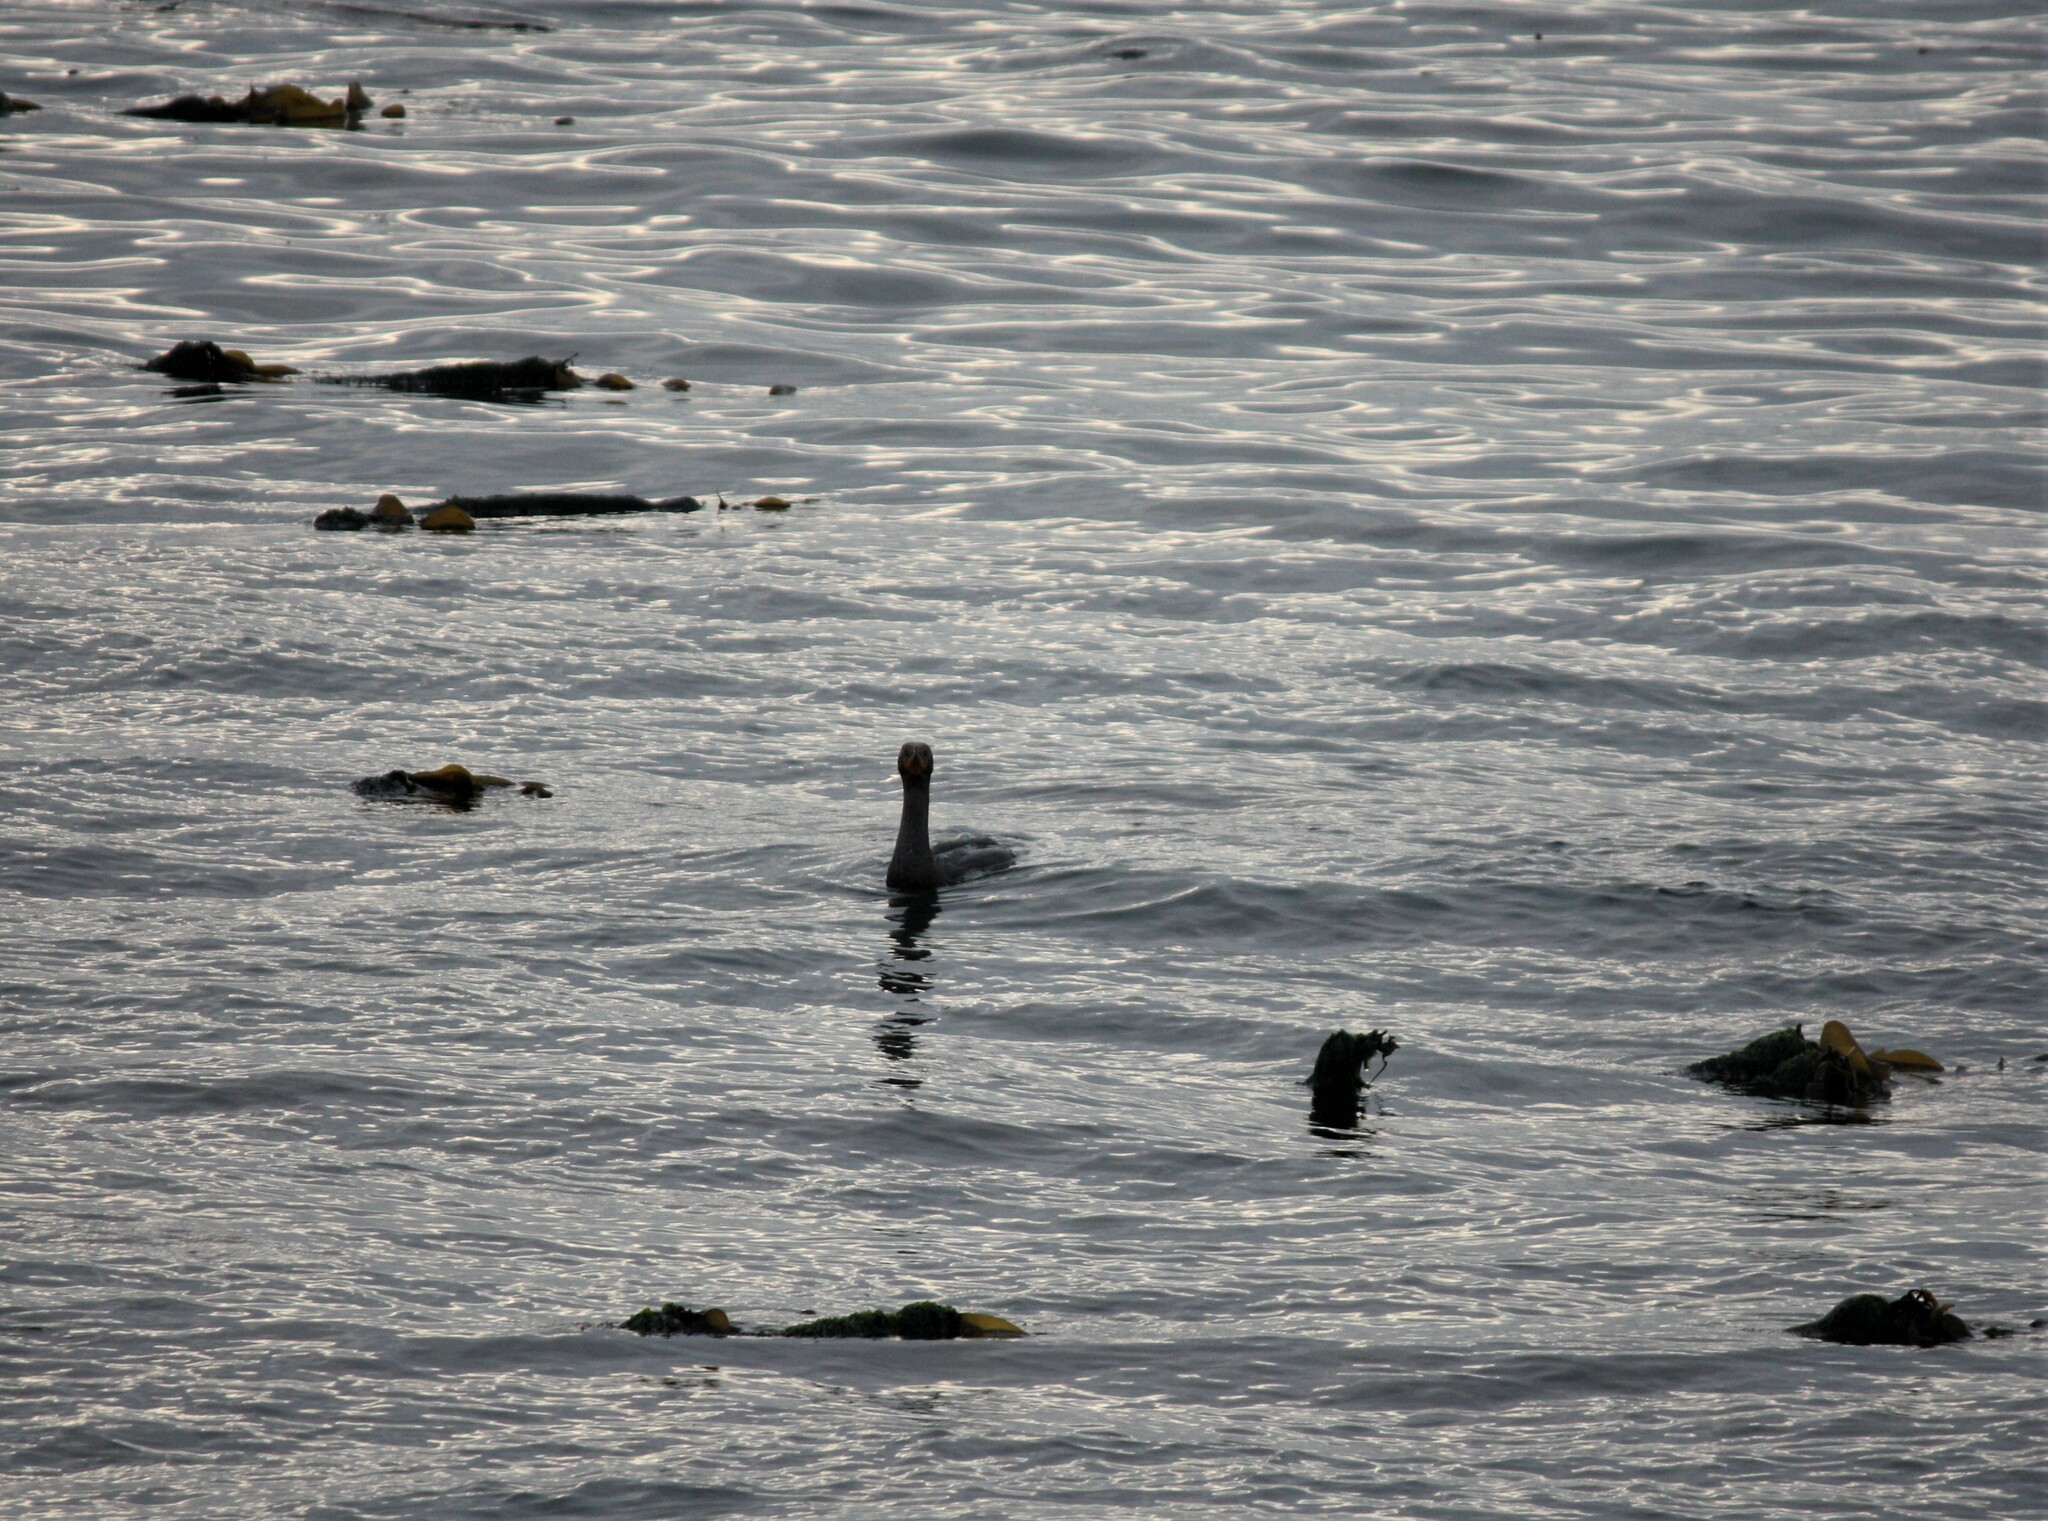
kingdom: Animalia
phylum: Chordata
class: Aves
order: Suliformes
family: Phalacrocoracidae
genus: Phalacrocorax
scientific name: Phalacrocorax auritus
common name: Double-crested cormorant
